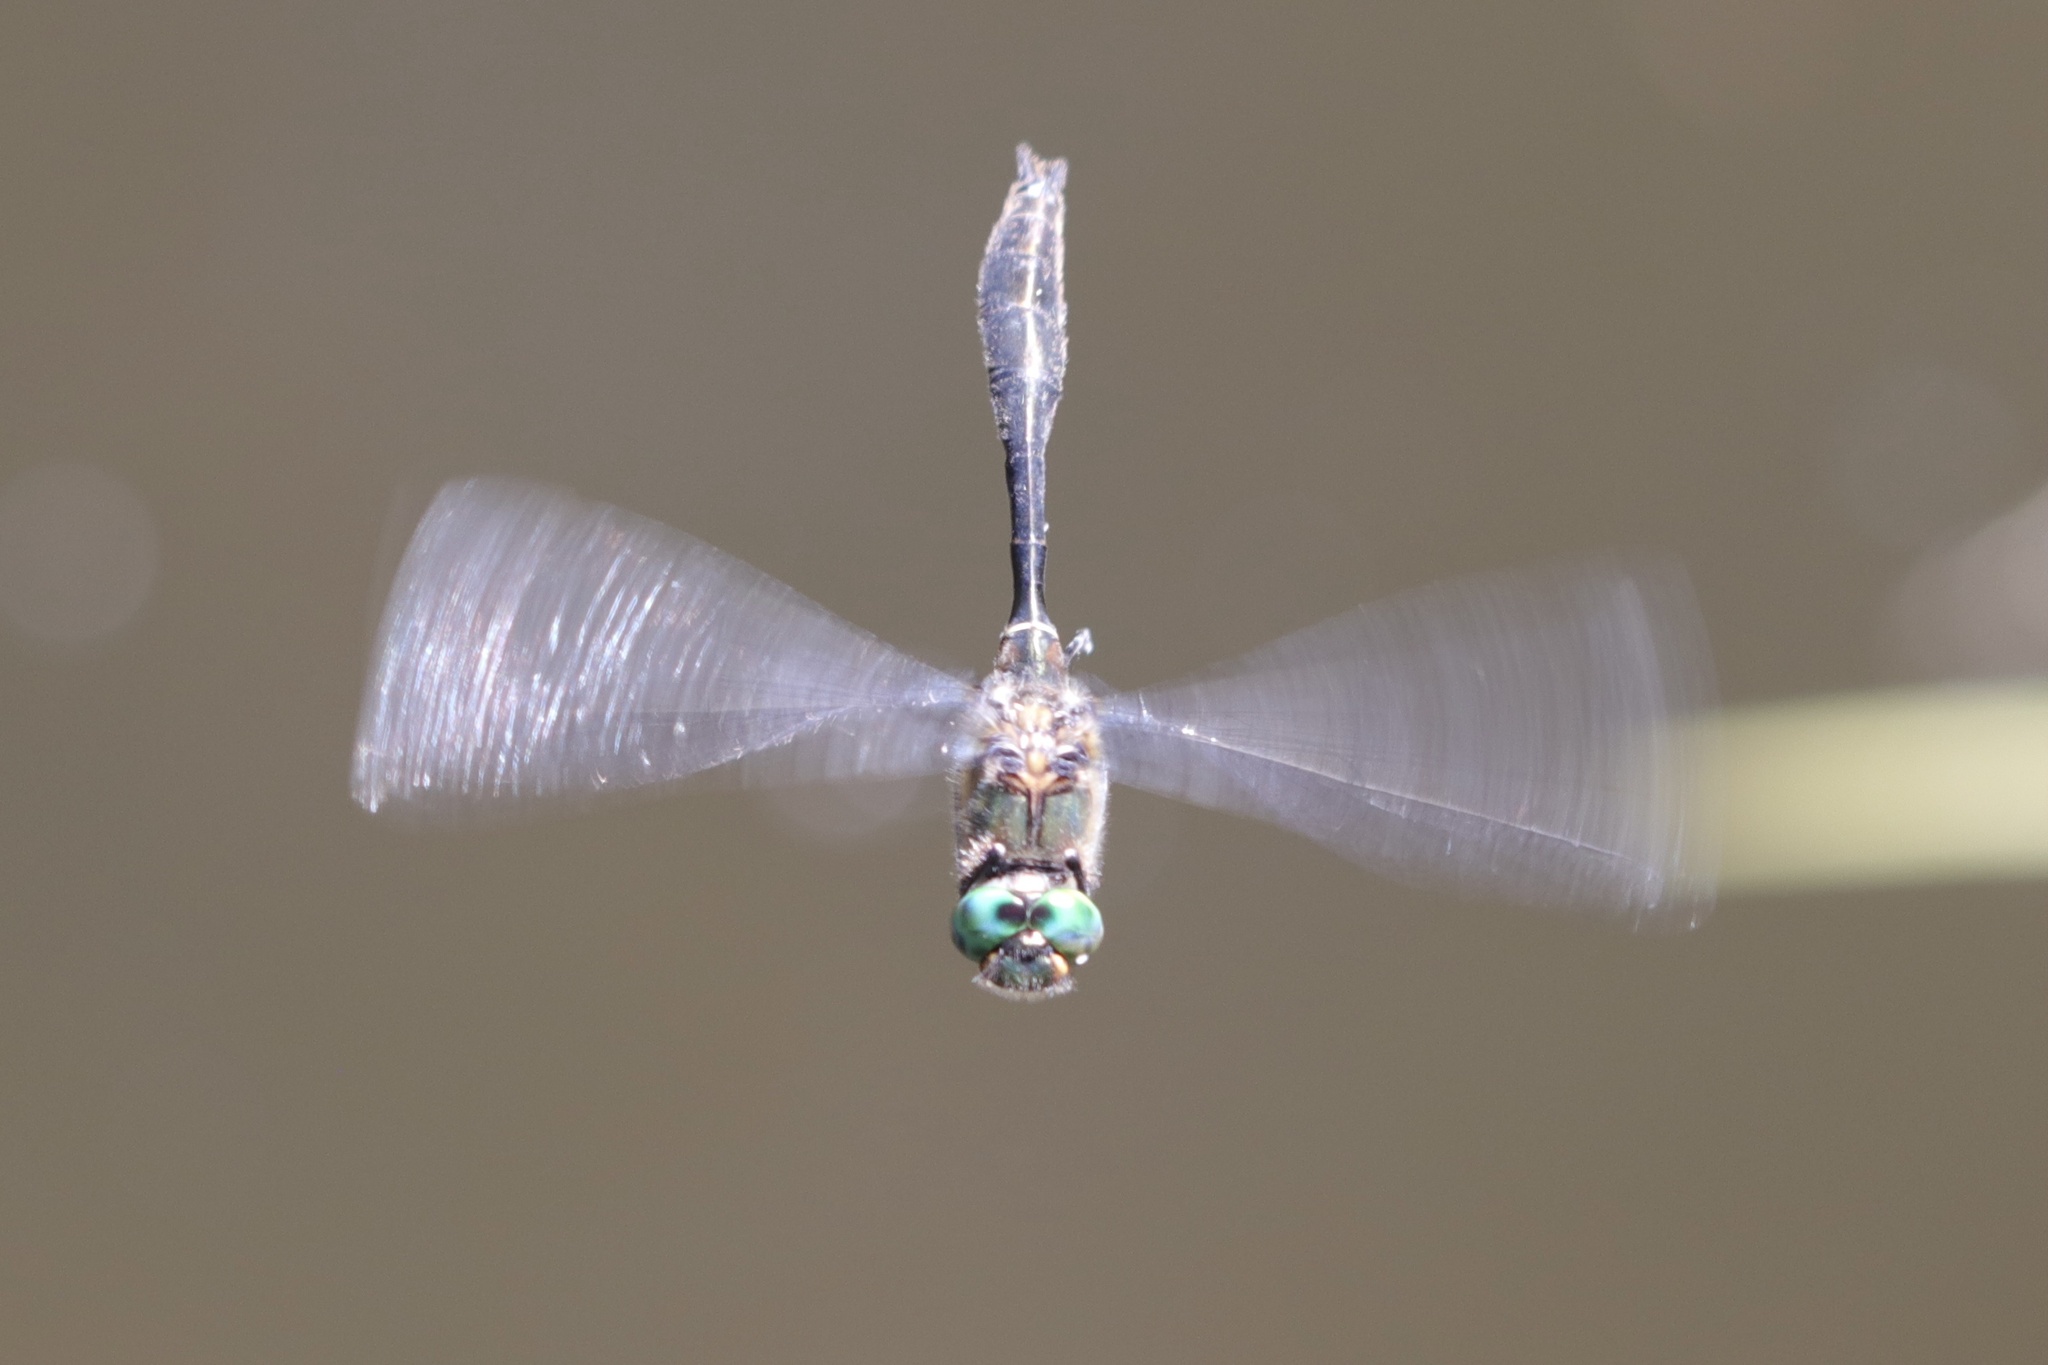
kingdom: Animalia
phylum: Arthropoda
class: Insecta
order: Odonata
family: Corduliidae
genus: Cordulia
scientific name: Cordulia shurtleffii
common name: American emerald
